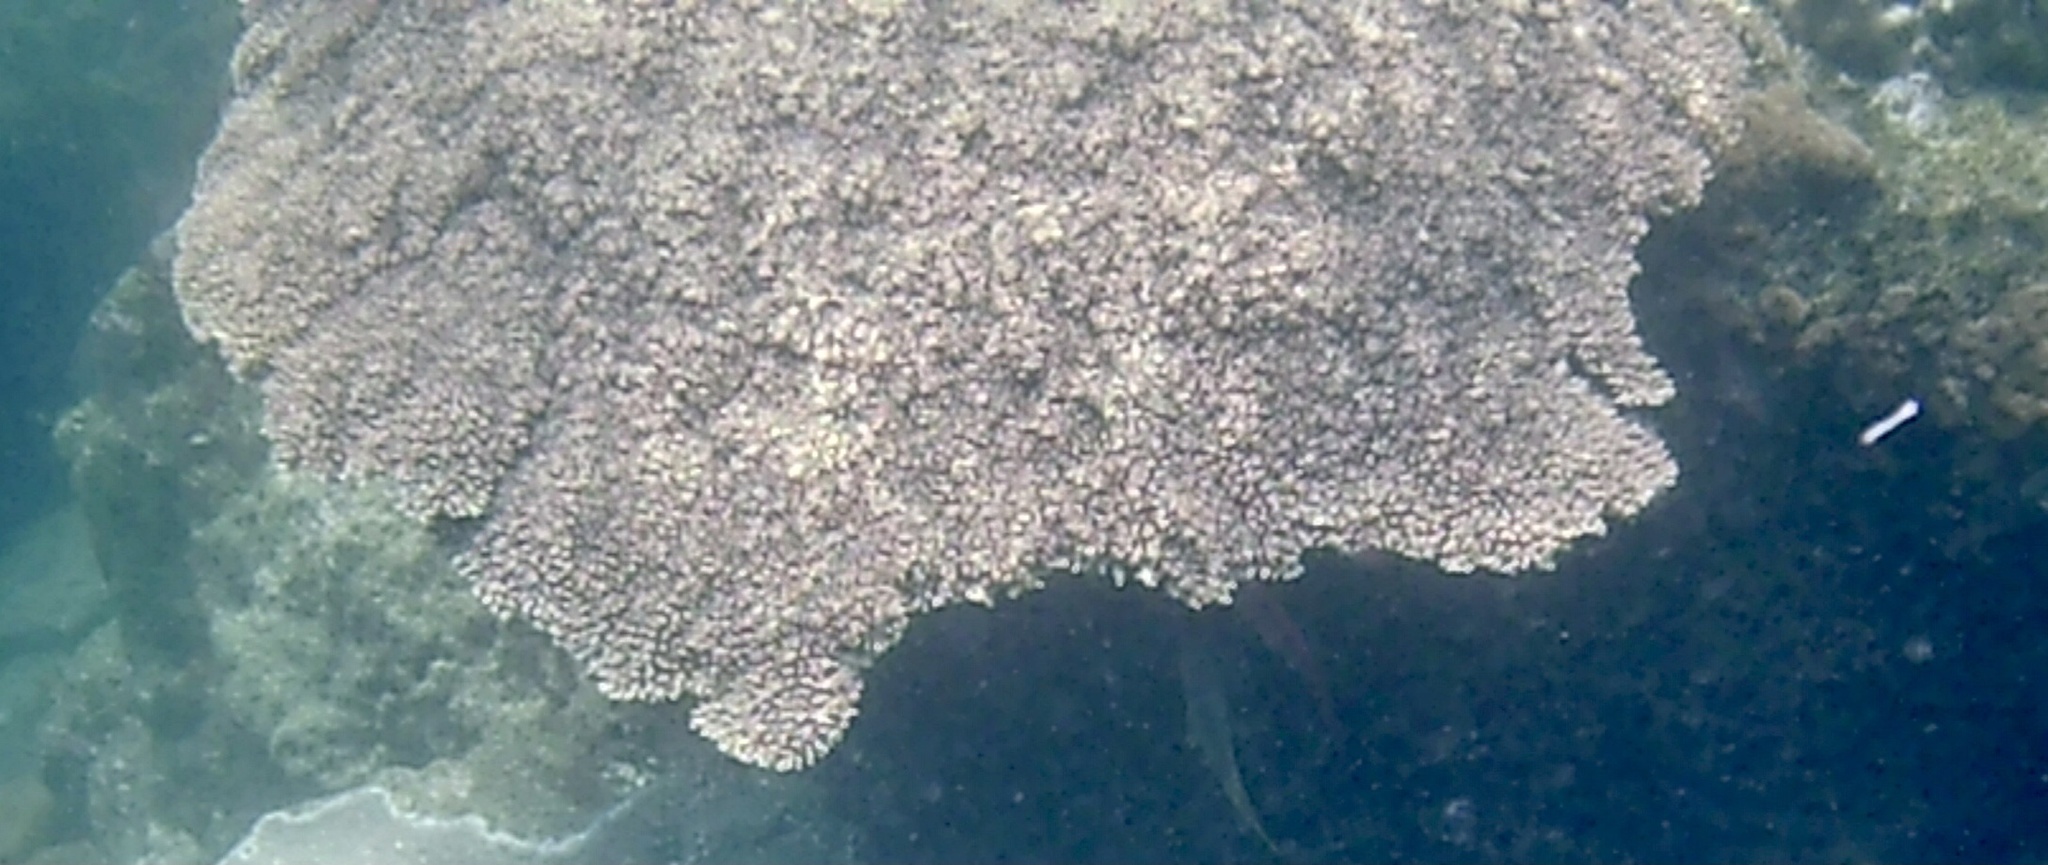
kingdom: Animalia
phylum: Cnidaria
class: Anthozoa
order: Scleractinia
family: Acroporidae
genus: Acropora
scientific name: Acropora
